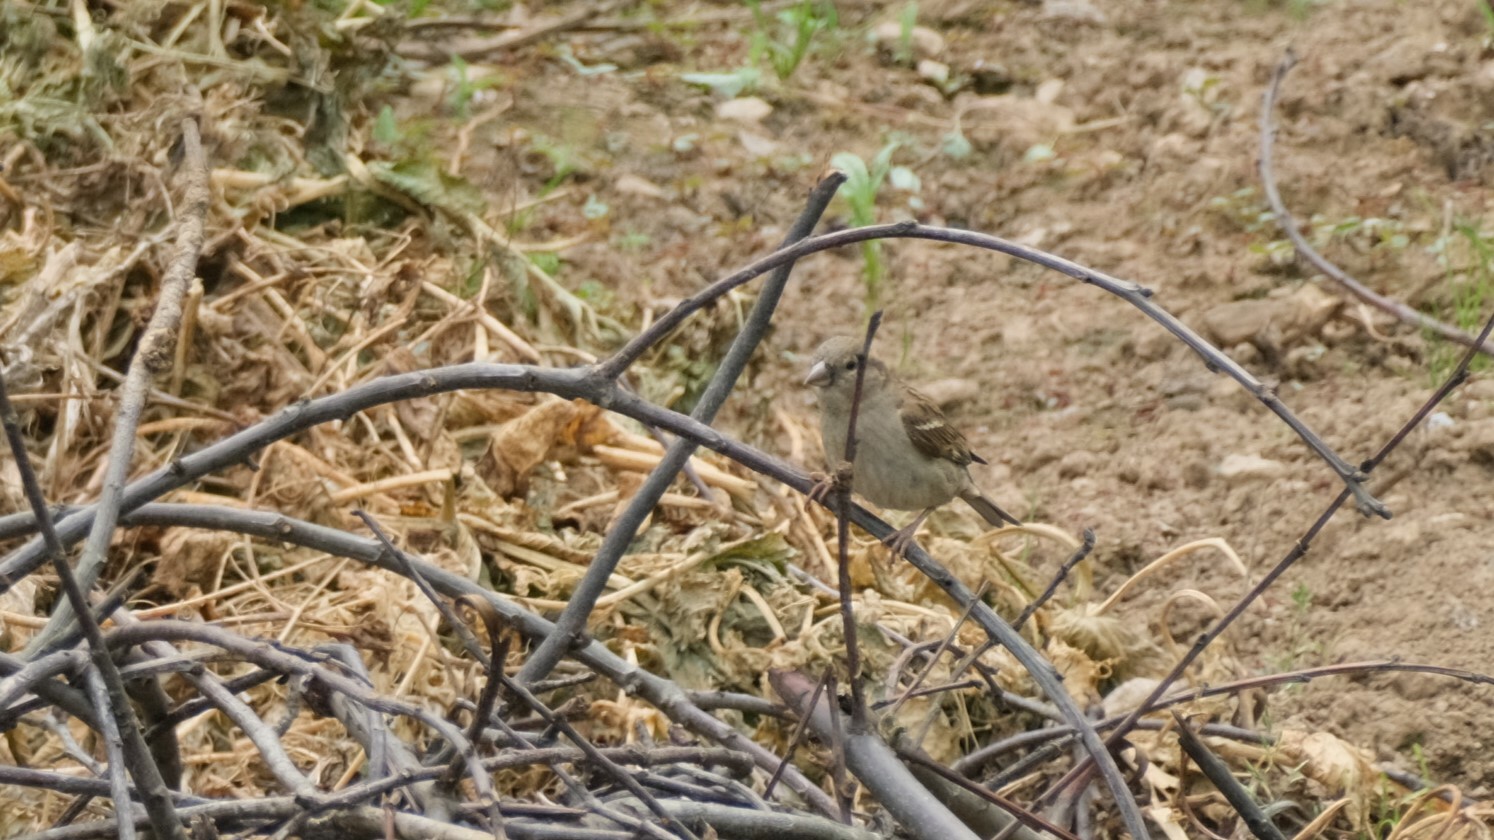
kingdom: Animalia
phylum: Chordata
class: Aves
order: Passeriformes
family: Passeridae
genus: Passer
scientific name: Passer domesticus
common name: House sparrow
